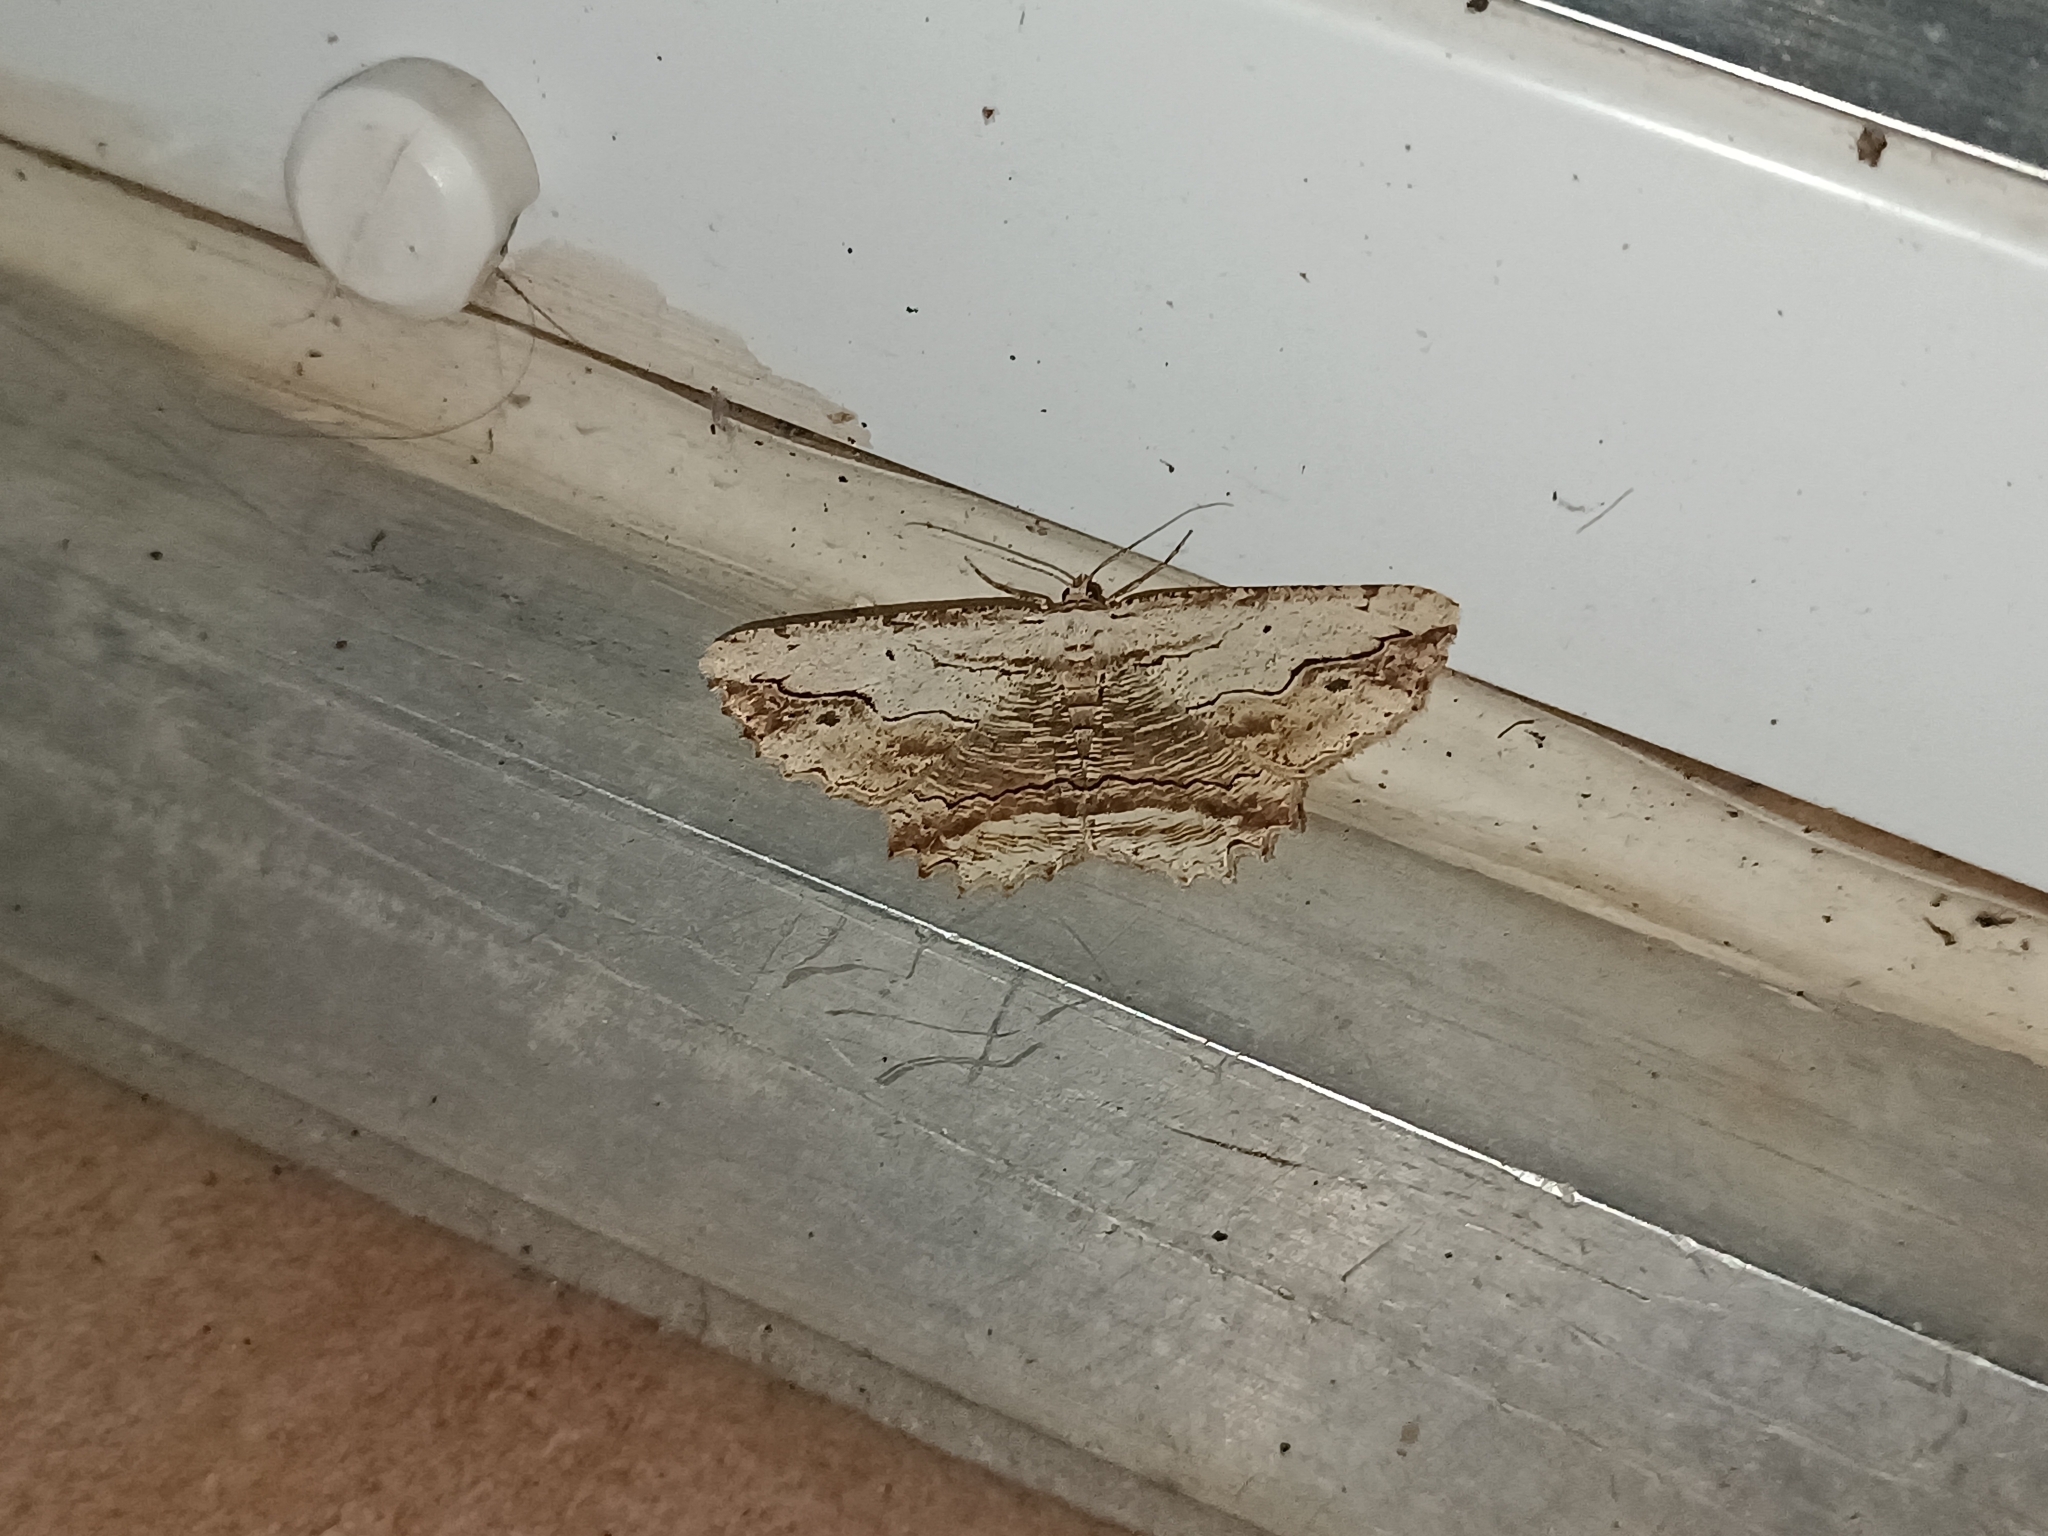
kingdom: Animalia
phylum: Arthropoda
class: Insecta
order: Lepidoptera
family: Geometridae
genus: Menophra
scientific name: Menophra abruptaria
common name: Waved umber
